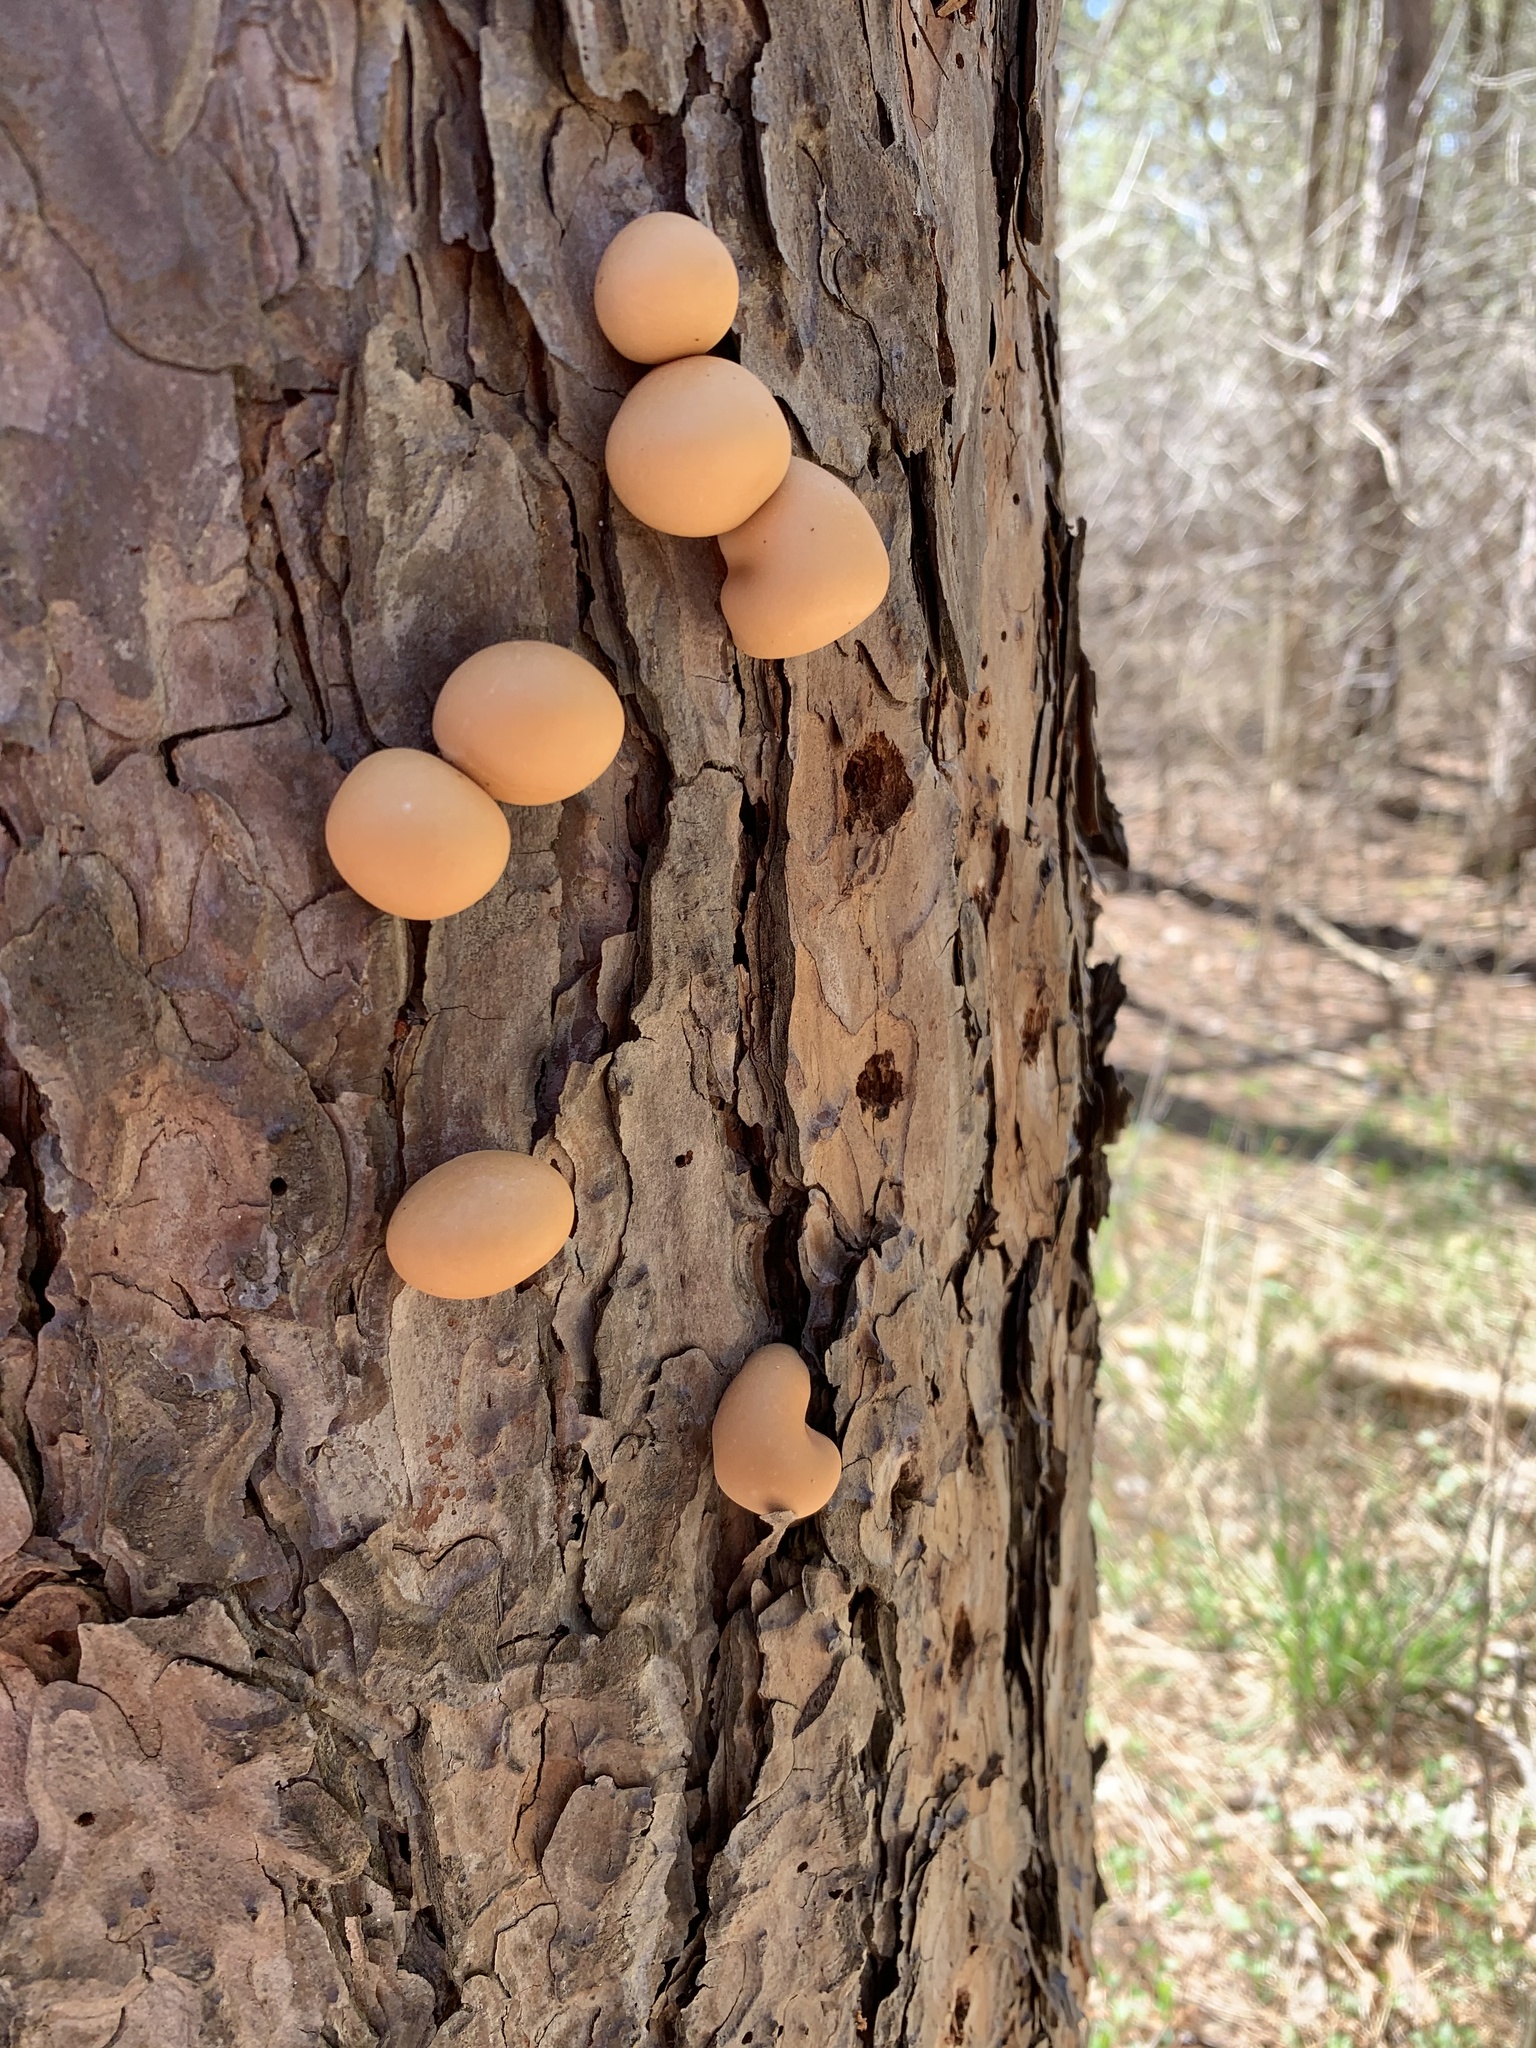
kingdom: Fungi
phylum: Basidiomycota
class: Agaricomycetes
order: Polyporales
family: Polyporaceae
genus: Cryptoporus
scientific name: Cryptoporus volvatus
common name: Veiled polypore
